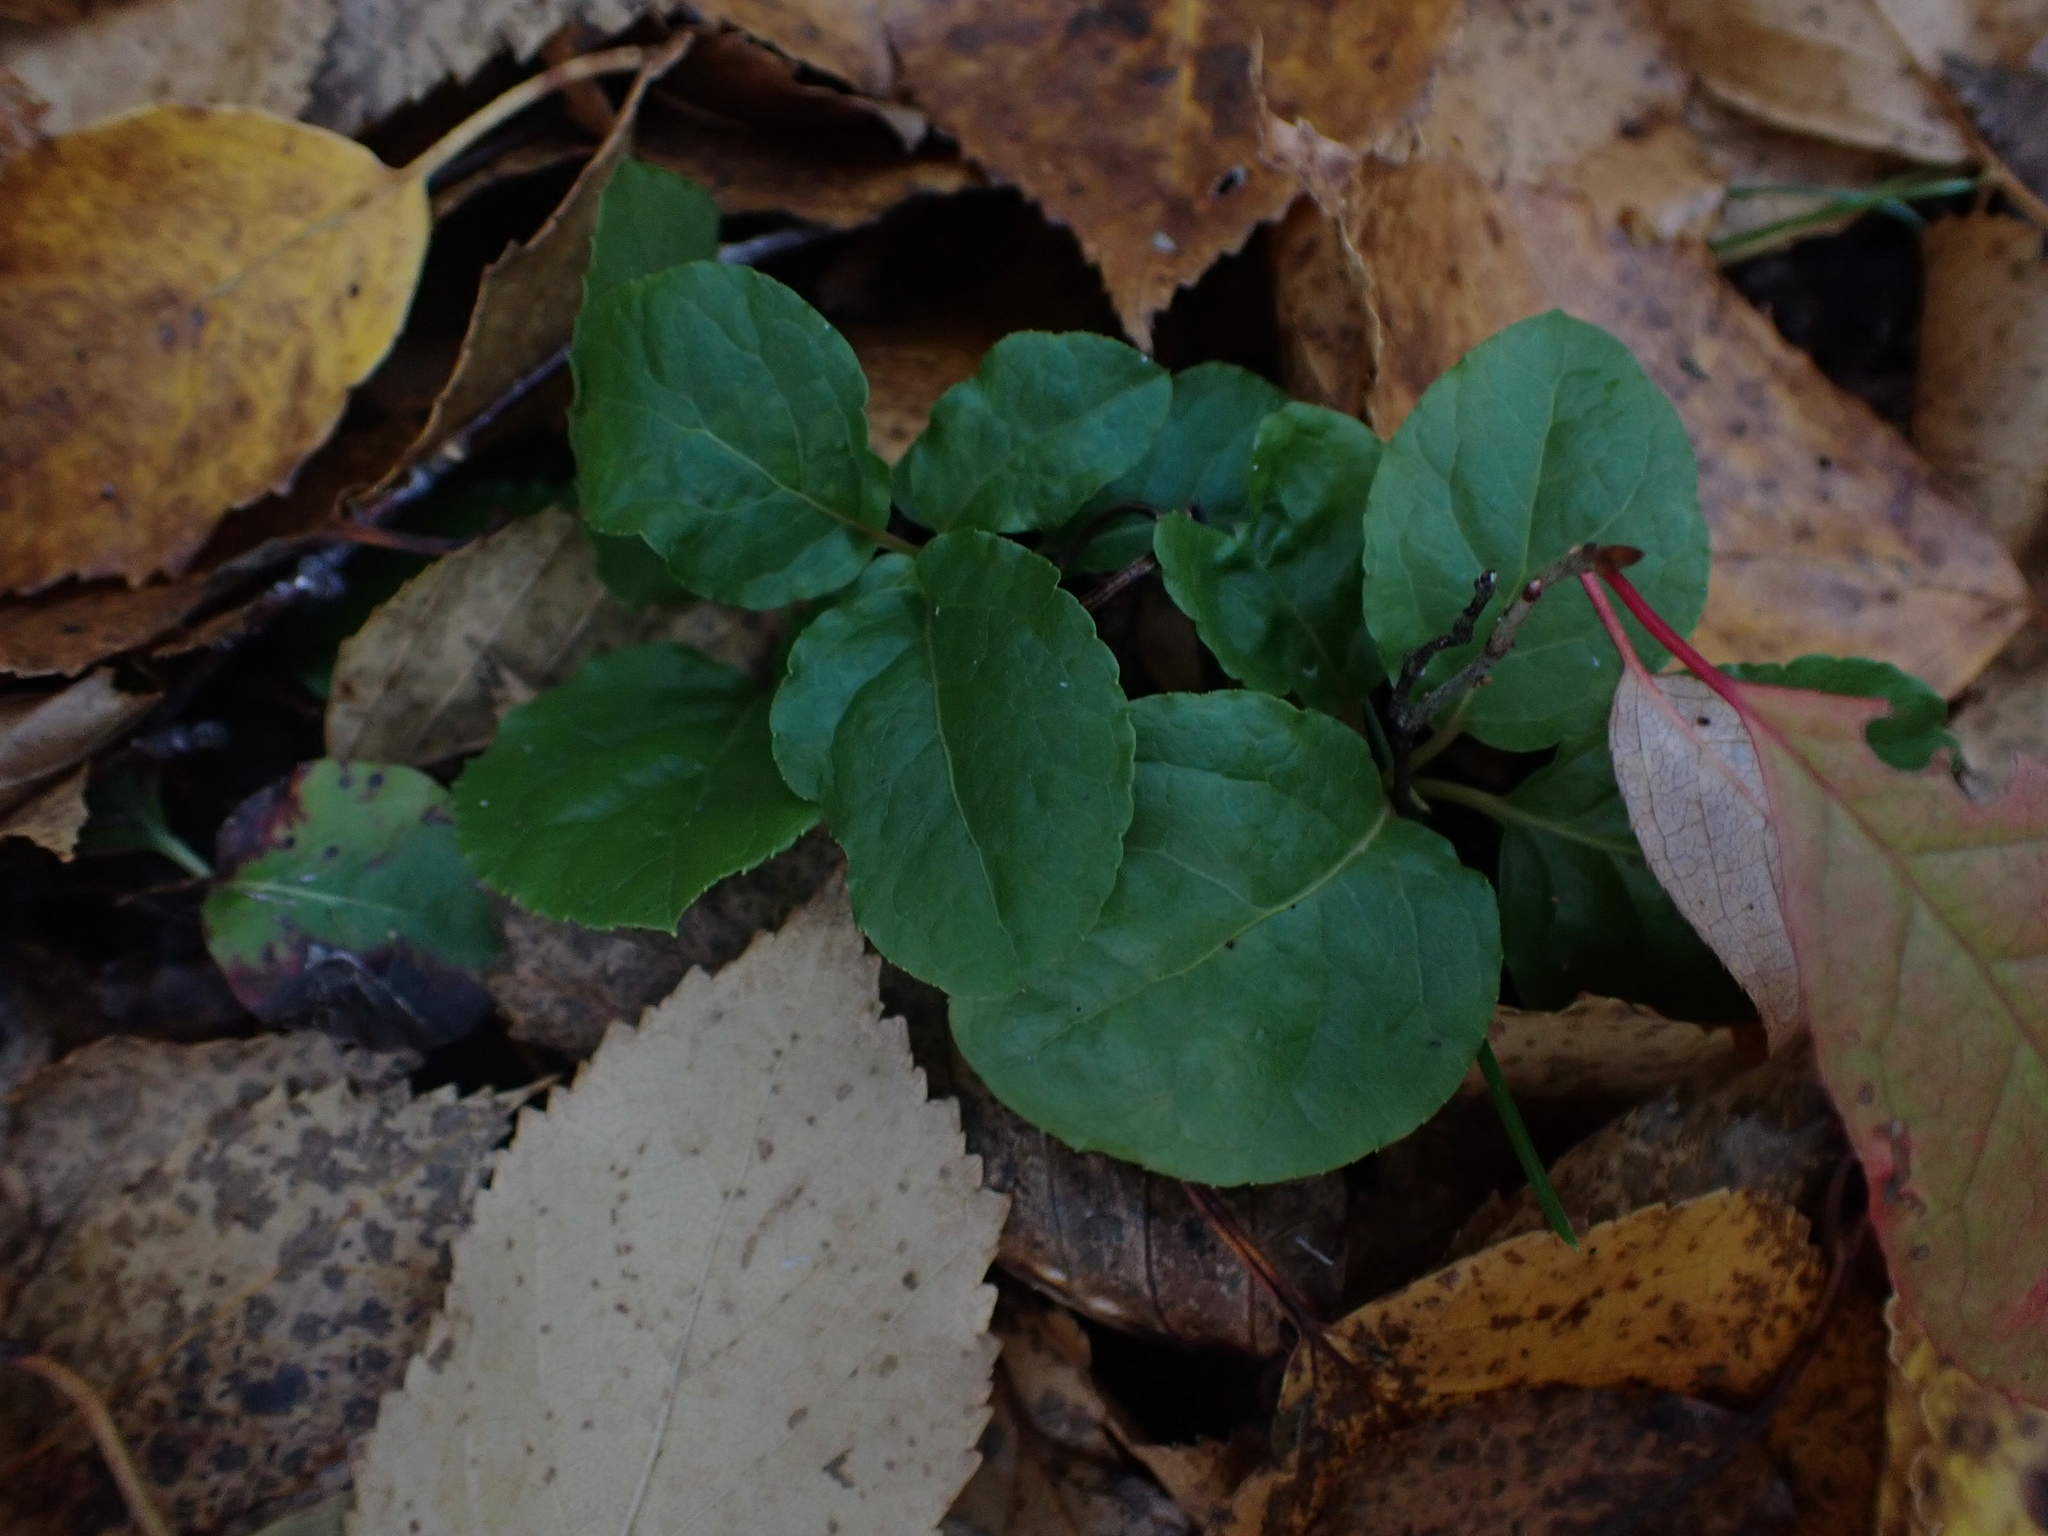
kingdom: Plantae
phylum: Tracheophyta
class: Magnoliopsida
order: Ericales
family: Ericaceae
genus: Orthilia
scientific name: Orthilia secunda
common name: One-sided orthilia
